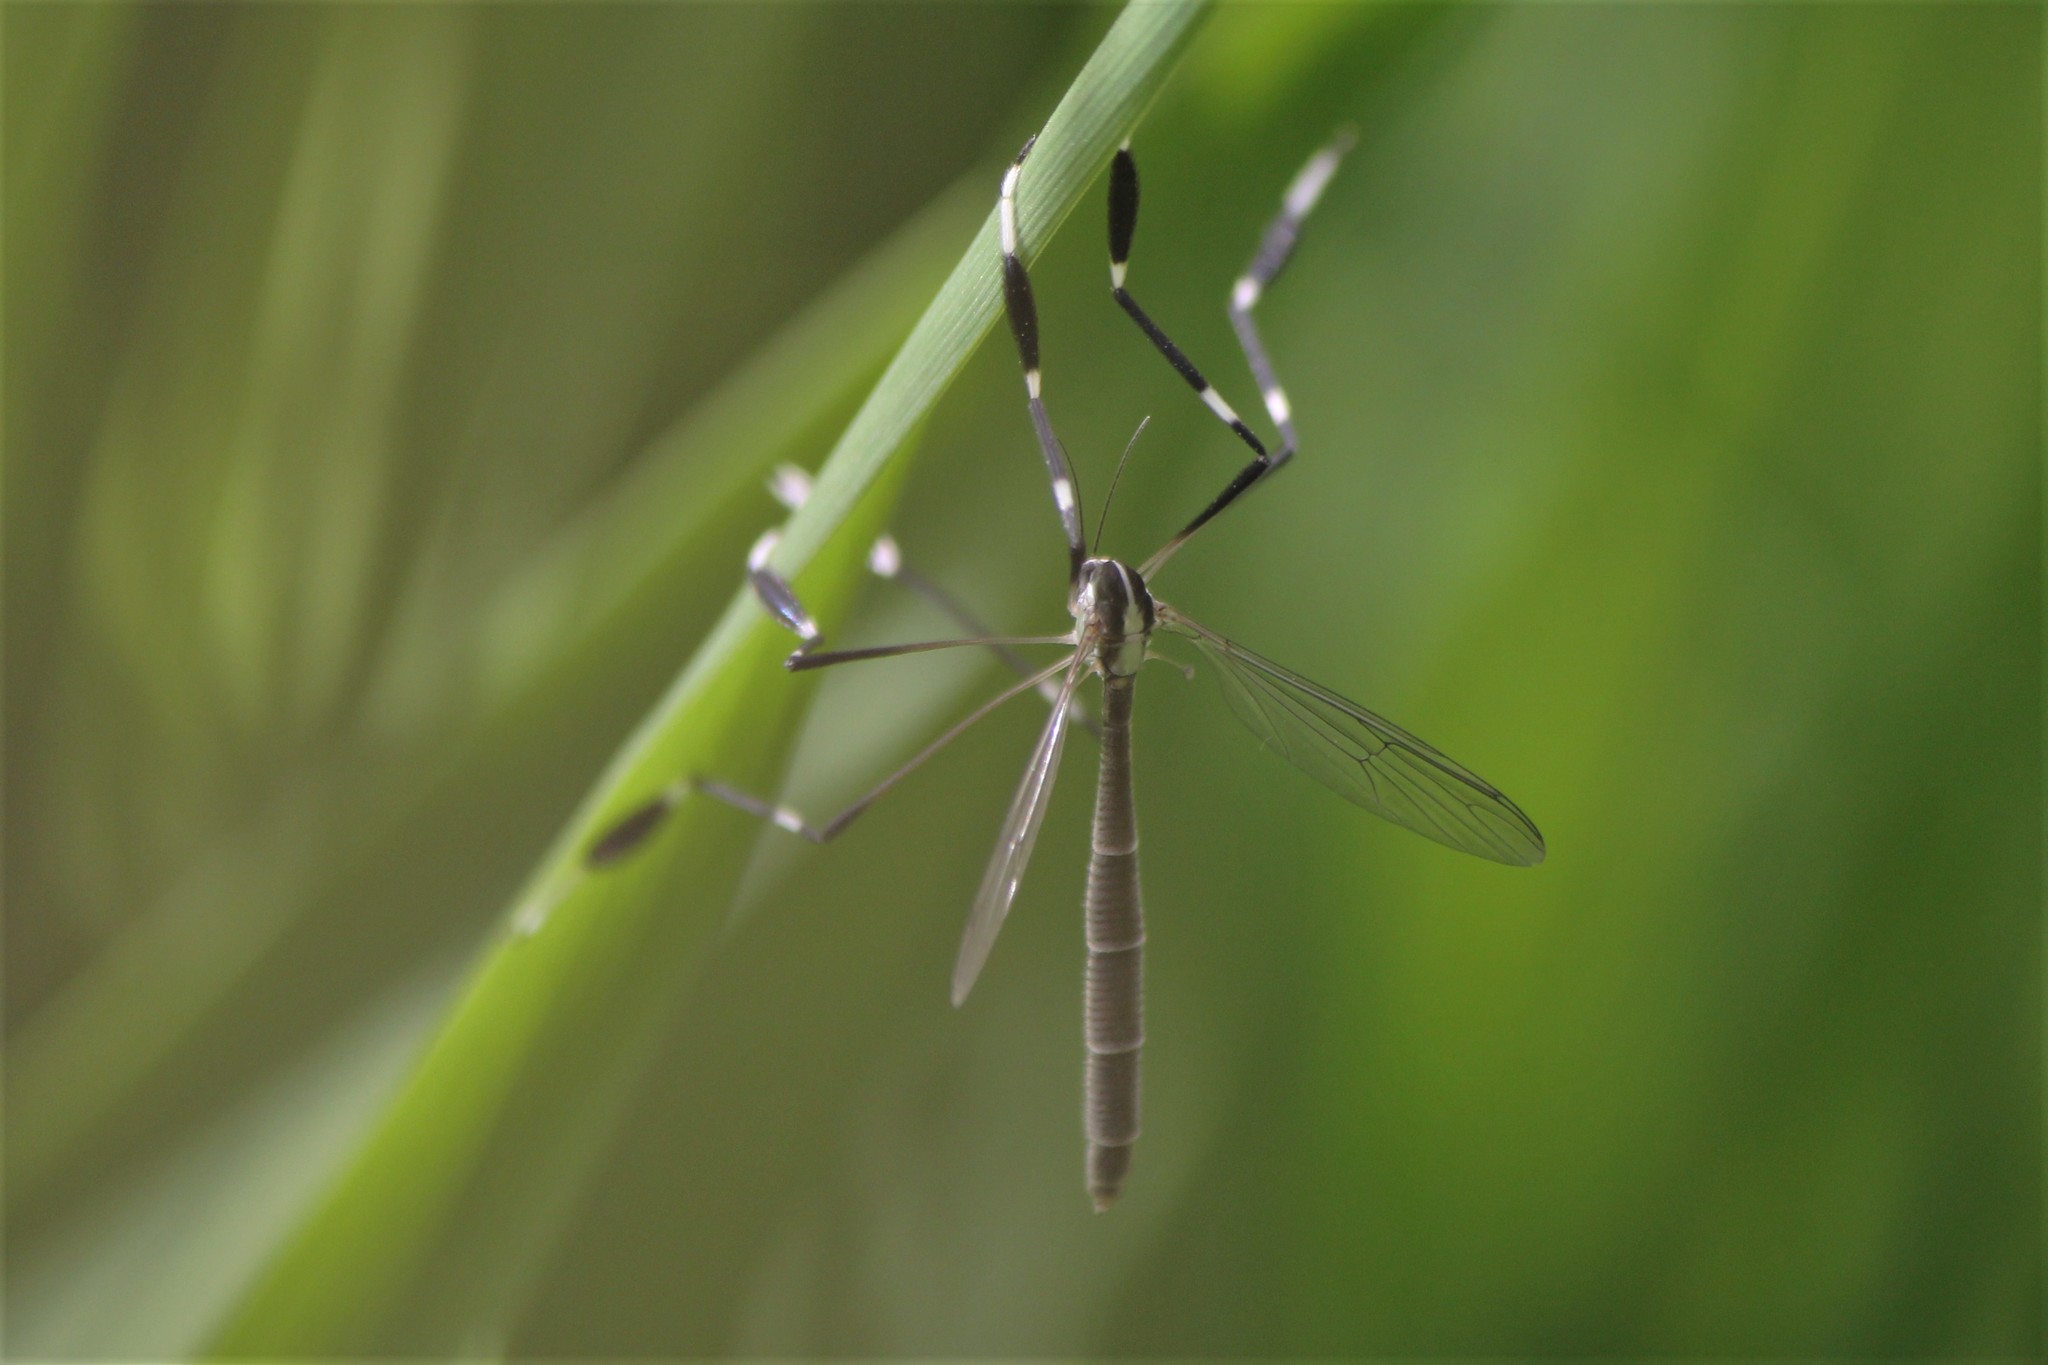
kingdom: Animalia
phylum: Arthropoda
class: Insecta
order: Diptera
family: Ptychopteridae
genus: Bittacomorpha
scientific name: Bittacomorpha clavipes
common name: Eastern phantom crane fly
